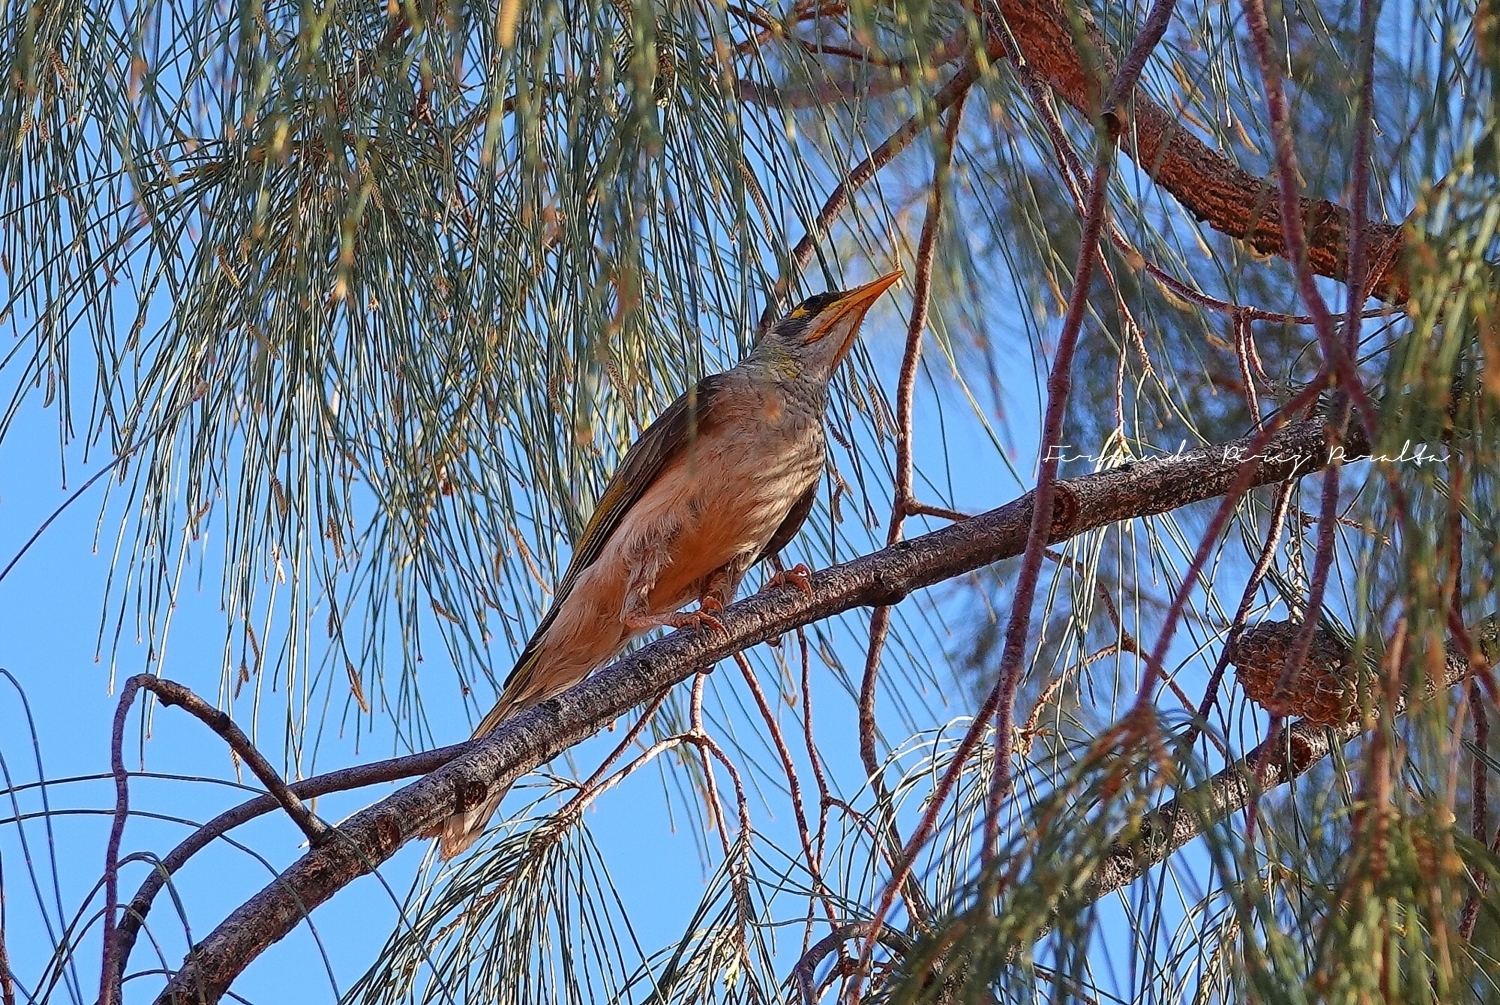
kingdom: Animalia
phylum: Chordata
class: Aves
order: Passeriformes
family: Meliphagidae
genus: Manorina
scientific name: Manorina flavigula
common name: Yellow-throated miner
